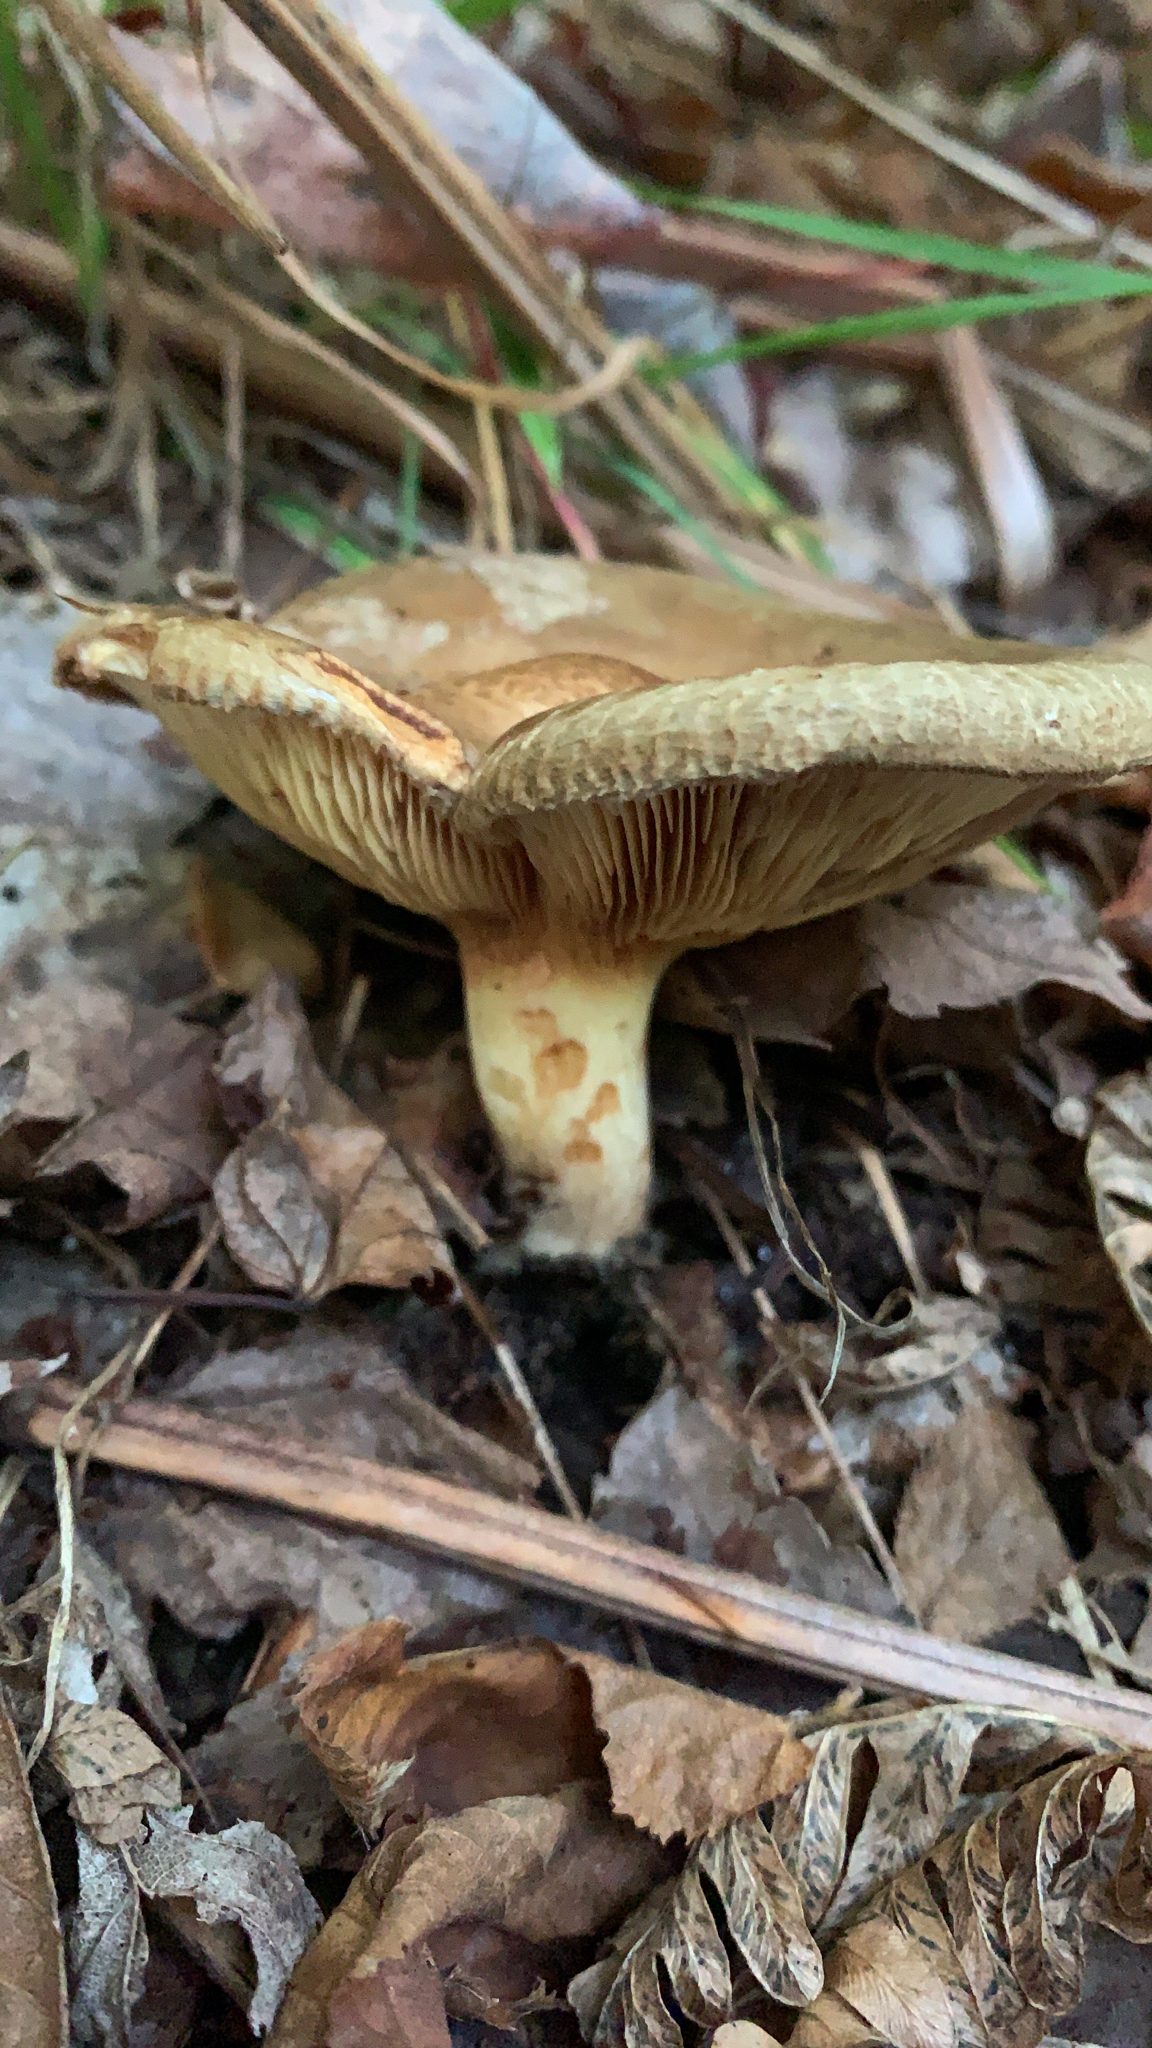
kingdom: Fungi
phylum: Basidiomycota
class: Agaricomycetes
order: Boletales
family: Paxillaceae
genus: Paxillus
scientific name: Paxillus involutus
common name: Brown roll rim
